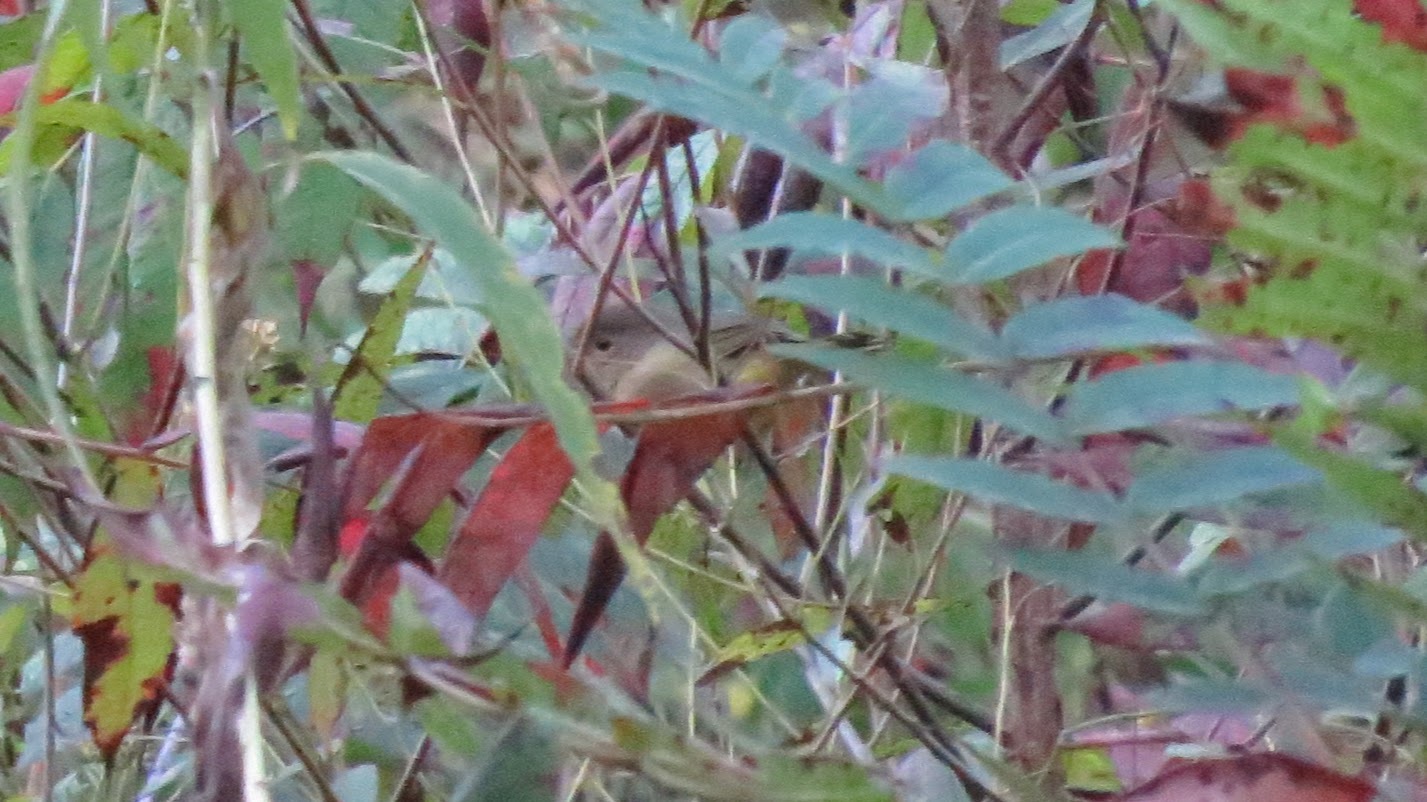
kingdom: Animalia
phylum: Chordata
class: Aves
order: Passeriformes
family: Parulidae
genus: Geothlypis
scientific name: Geothlypis trichas
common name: Common yellowthroat
